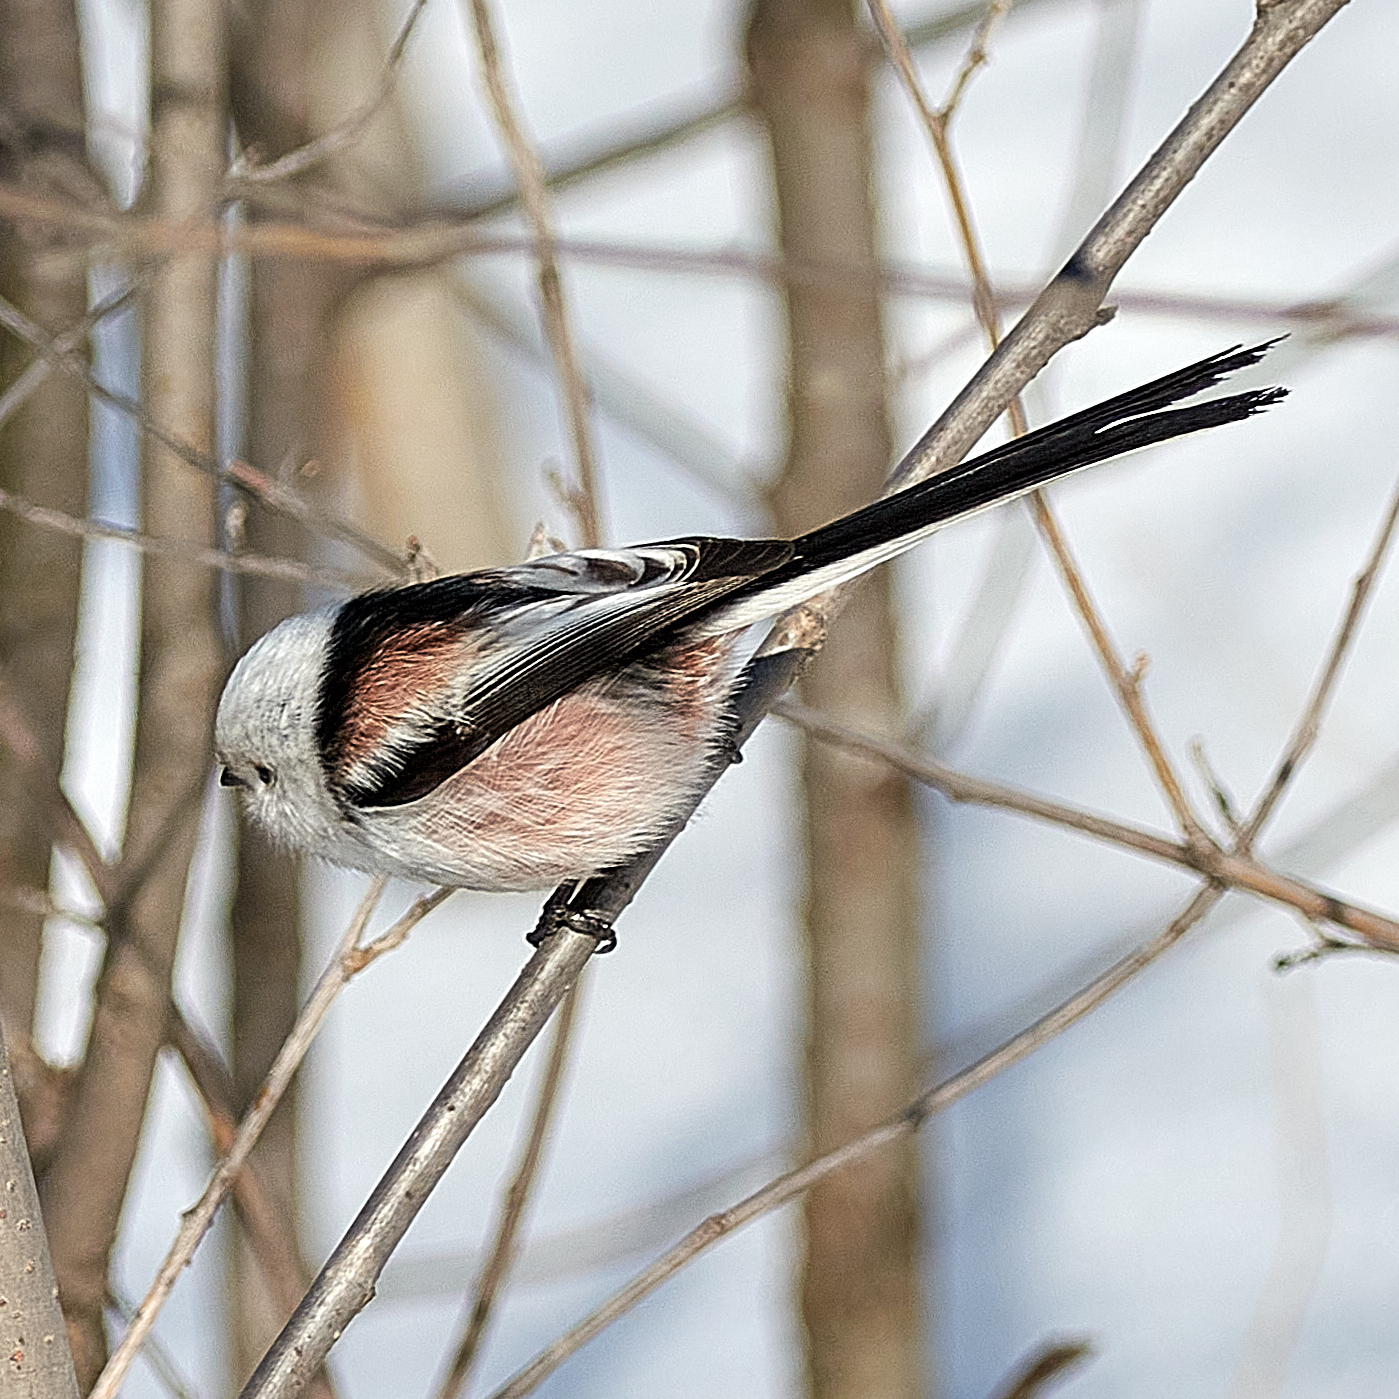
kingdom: Animalia
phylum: Chordata
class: Aves
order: Passeriformes
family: Aegithalidae
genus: Aegithalos
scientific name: Aegithalos caudatus
